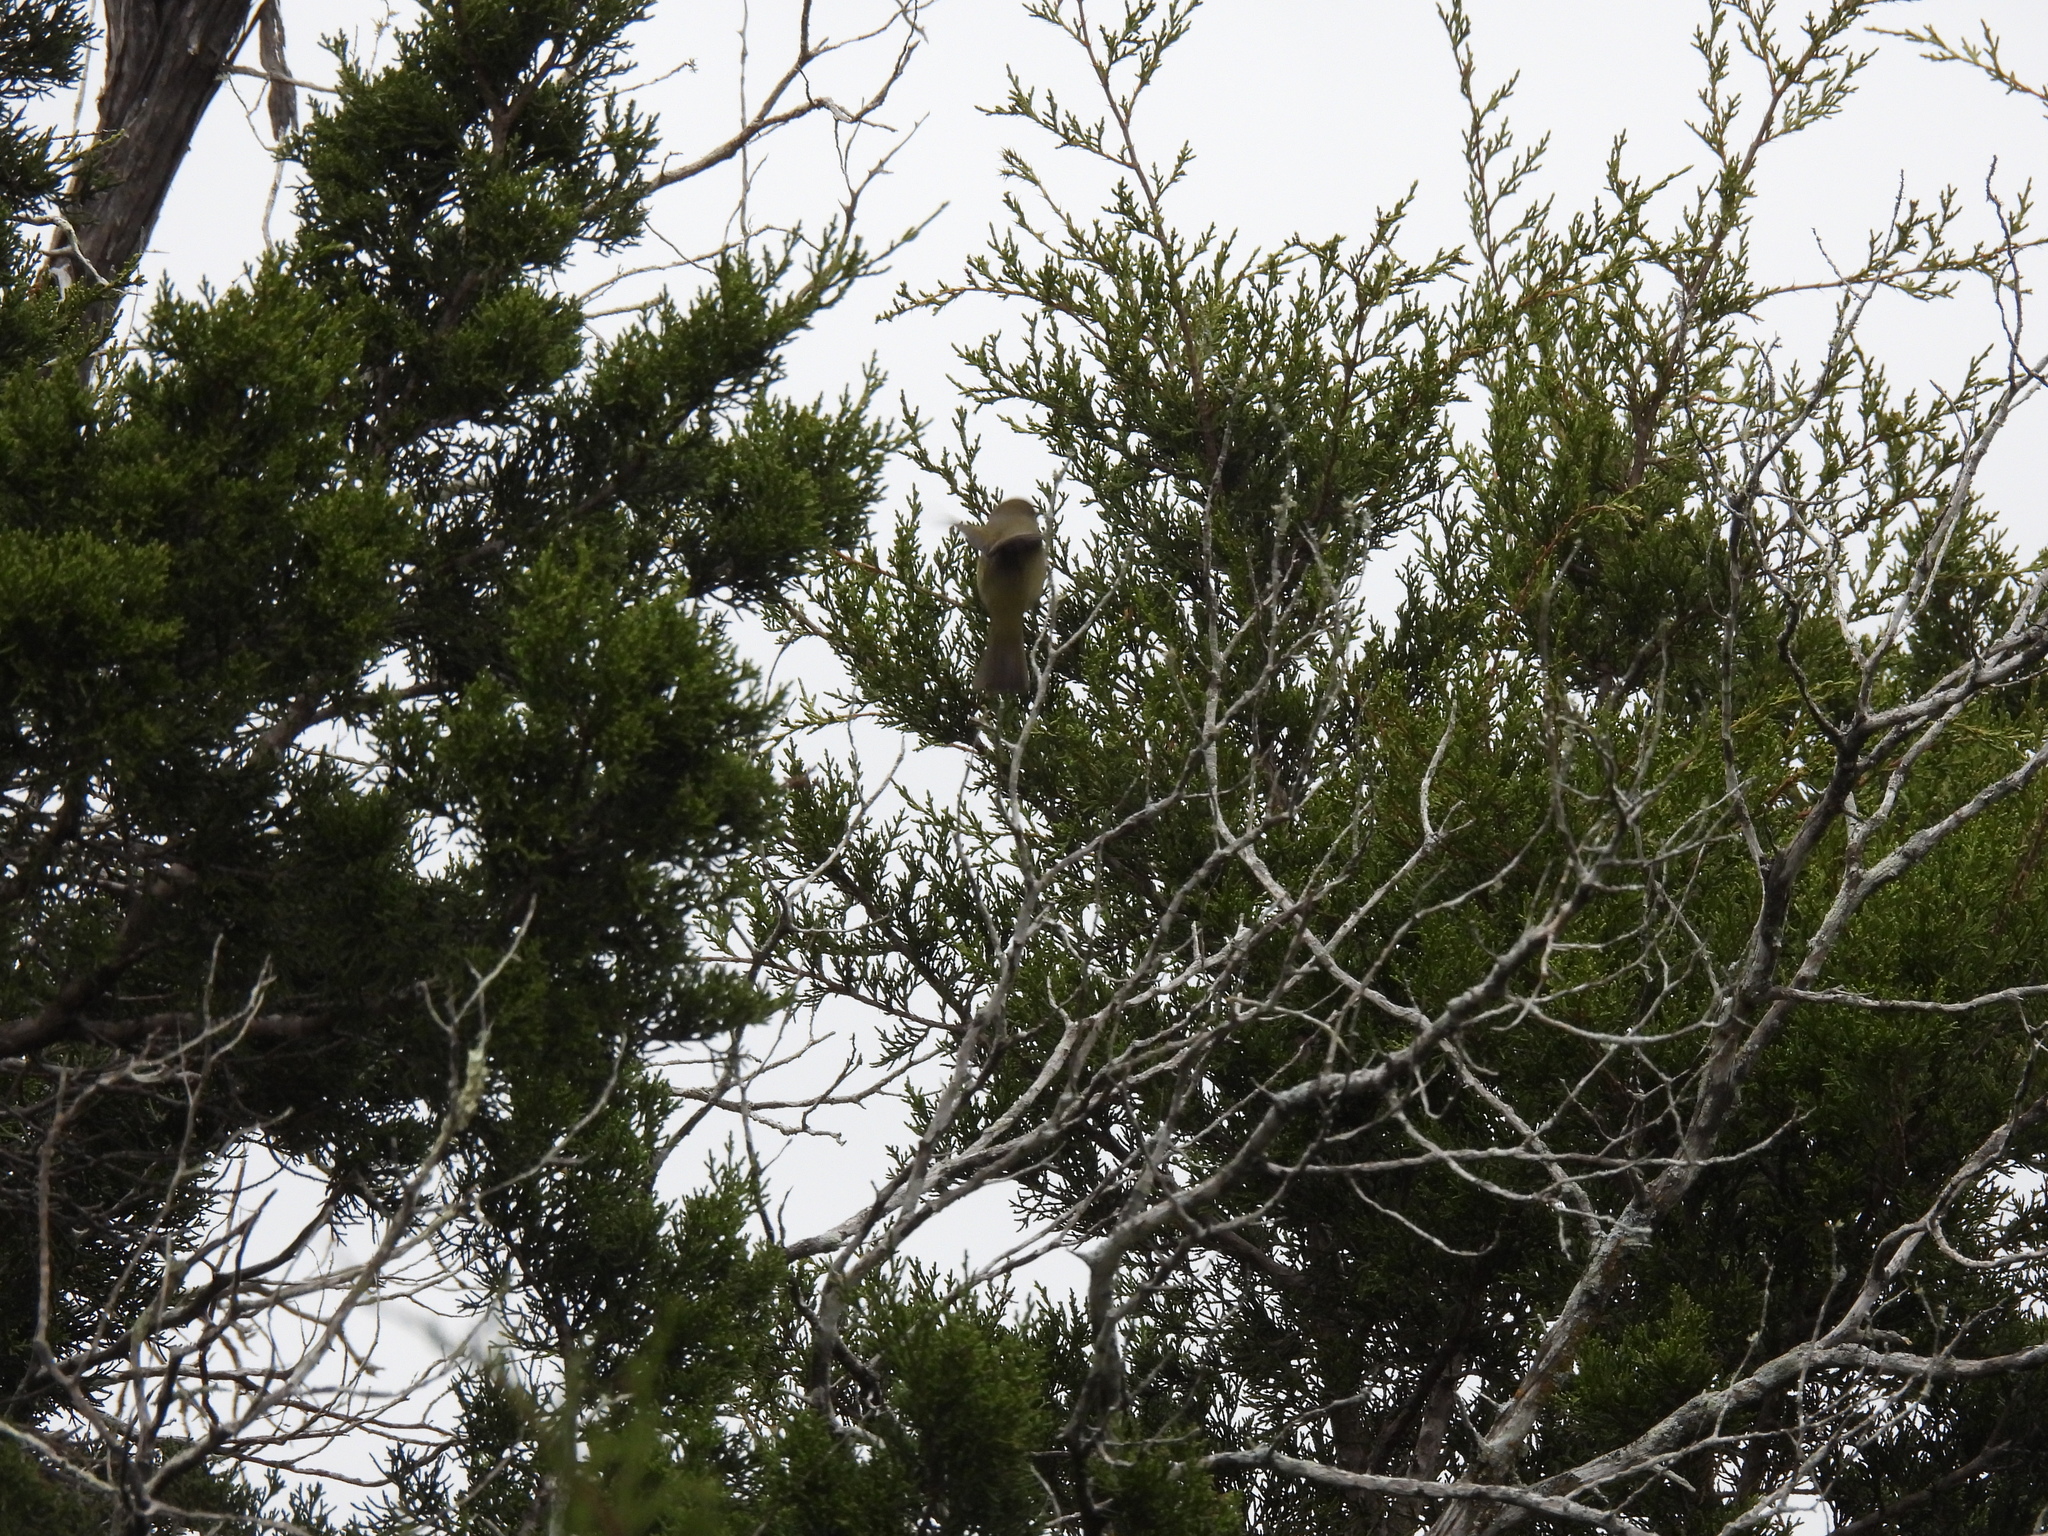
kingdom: Animalia
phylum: Chordata
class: Aves
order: Passeriformes
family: Parulidae
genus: Leiothlypis
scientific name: Leiothlypis celata
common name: Orange-crowned warbler
